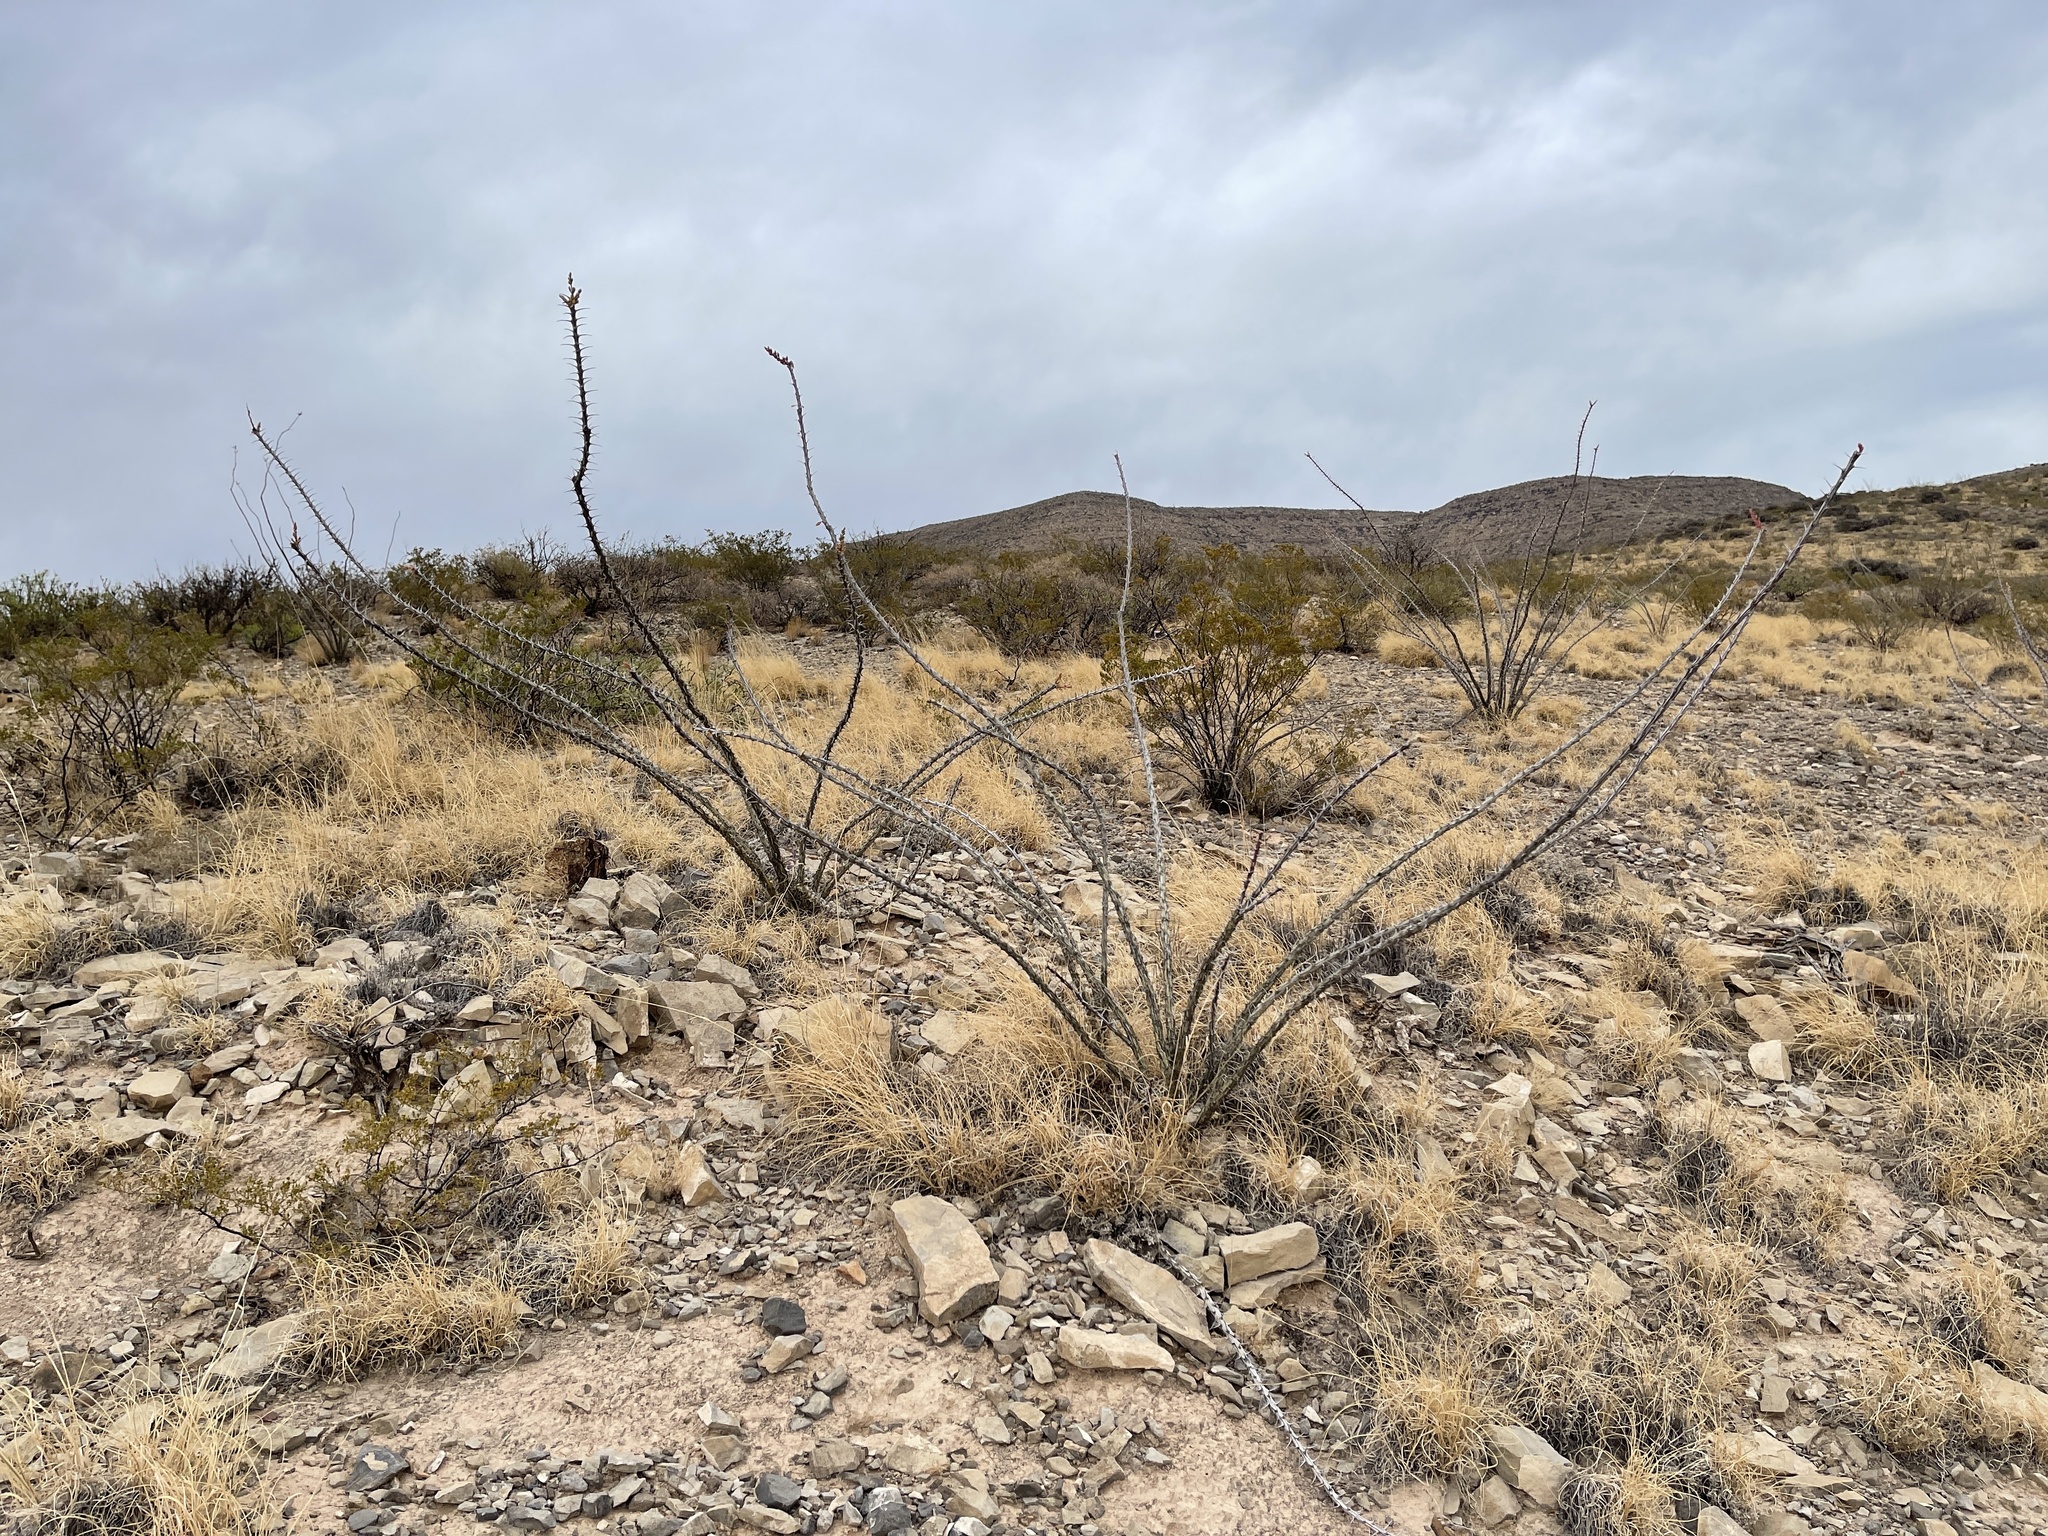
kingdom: Plantae
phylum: Tracheophyta
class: Magnoliopsida
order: Ericales
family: Fouquieriaceae
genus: Fouquieria
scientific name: Fouquieria splendens
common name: Vine-cactus
